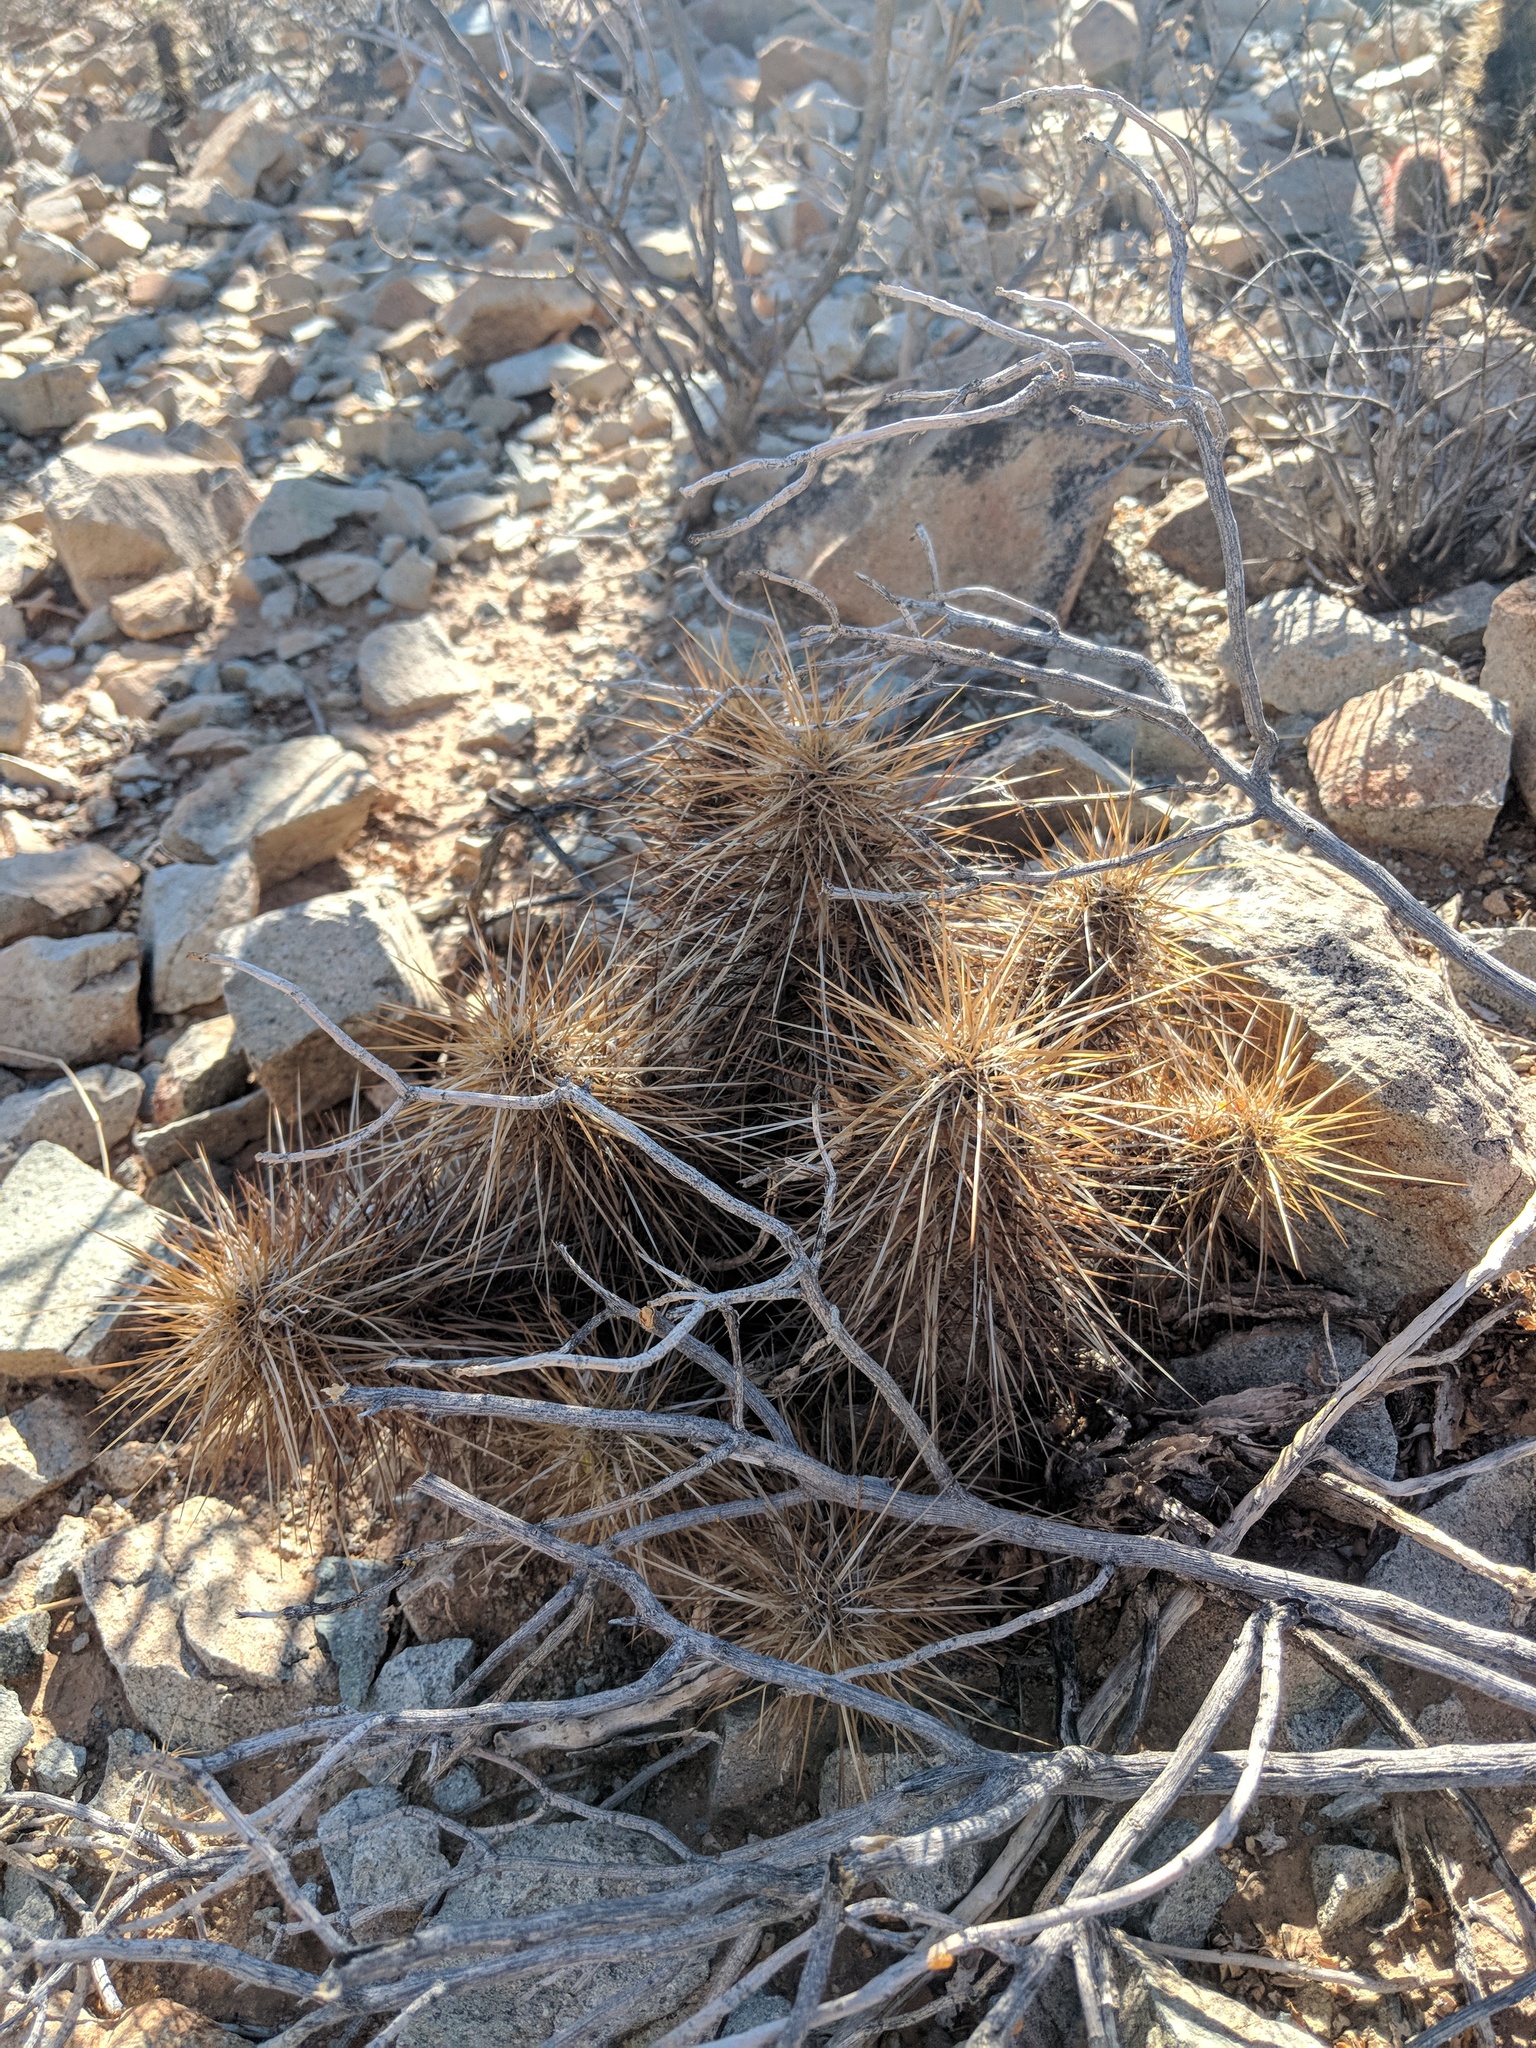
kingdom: Plantae
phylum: Tracheophyta
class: Magnoliopsida
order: Caryophyllales
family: Cactaceae
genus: Echinocereus
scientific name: Echinocereus engelmannii
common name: Engelmann's hedgehog cactus
